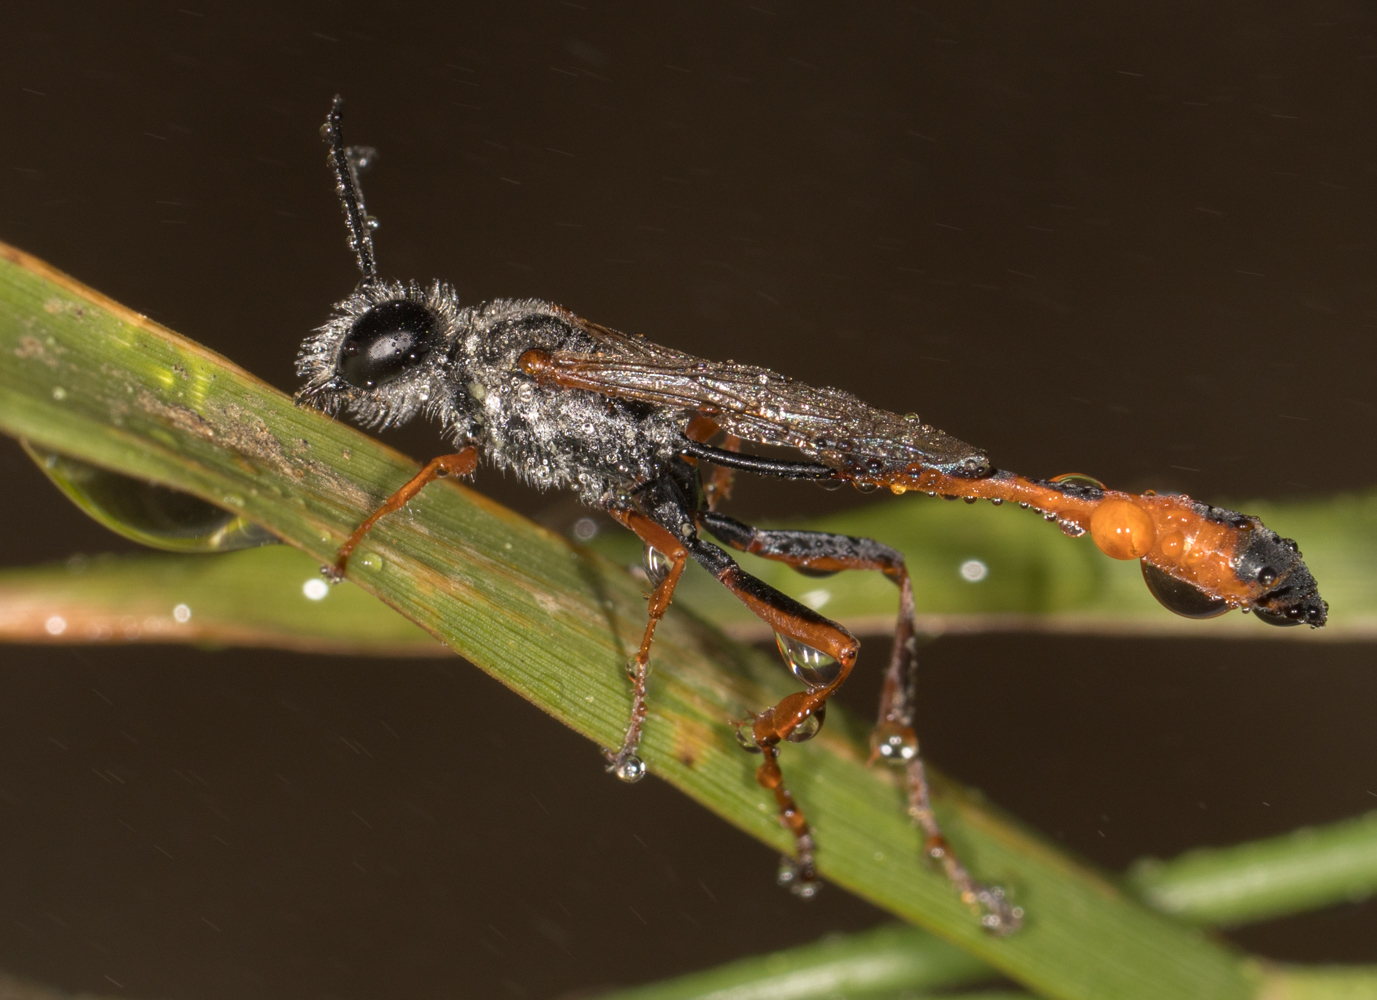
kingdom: Animalia
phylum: Arthropoda
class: Insecta
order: Hymenoptera
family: Sphecidae
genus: Ammophila
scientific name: Ammophila
